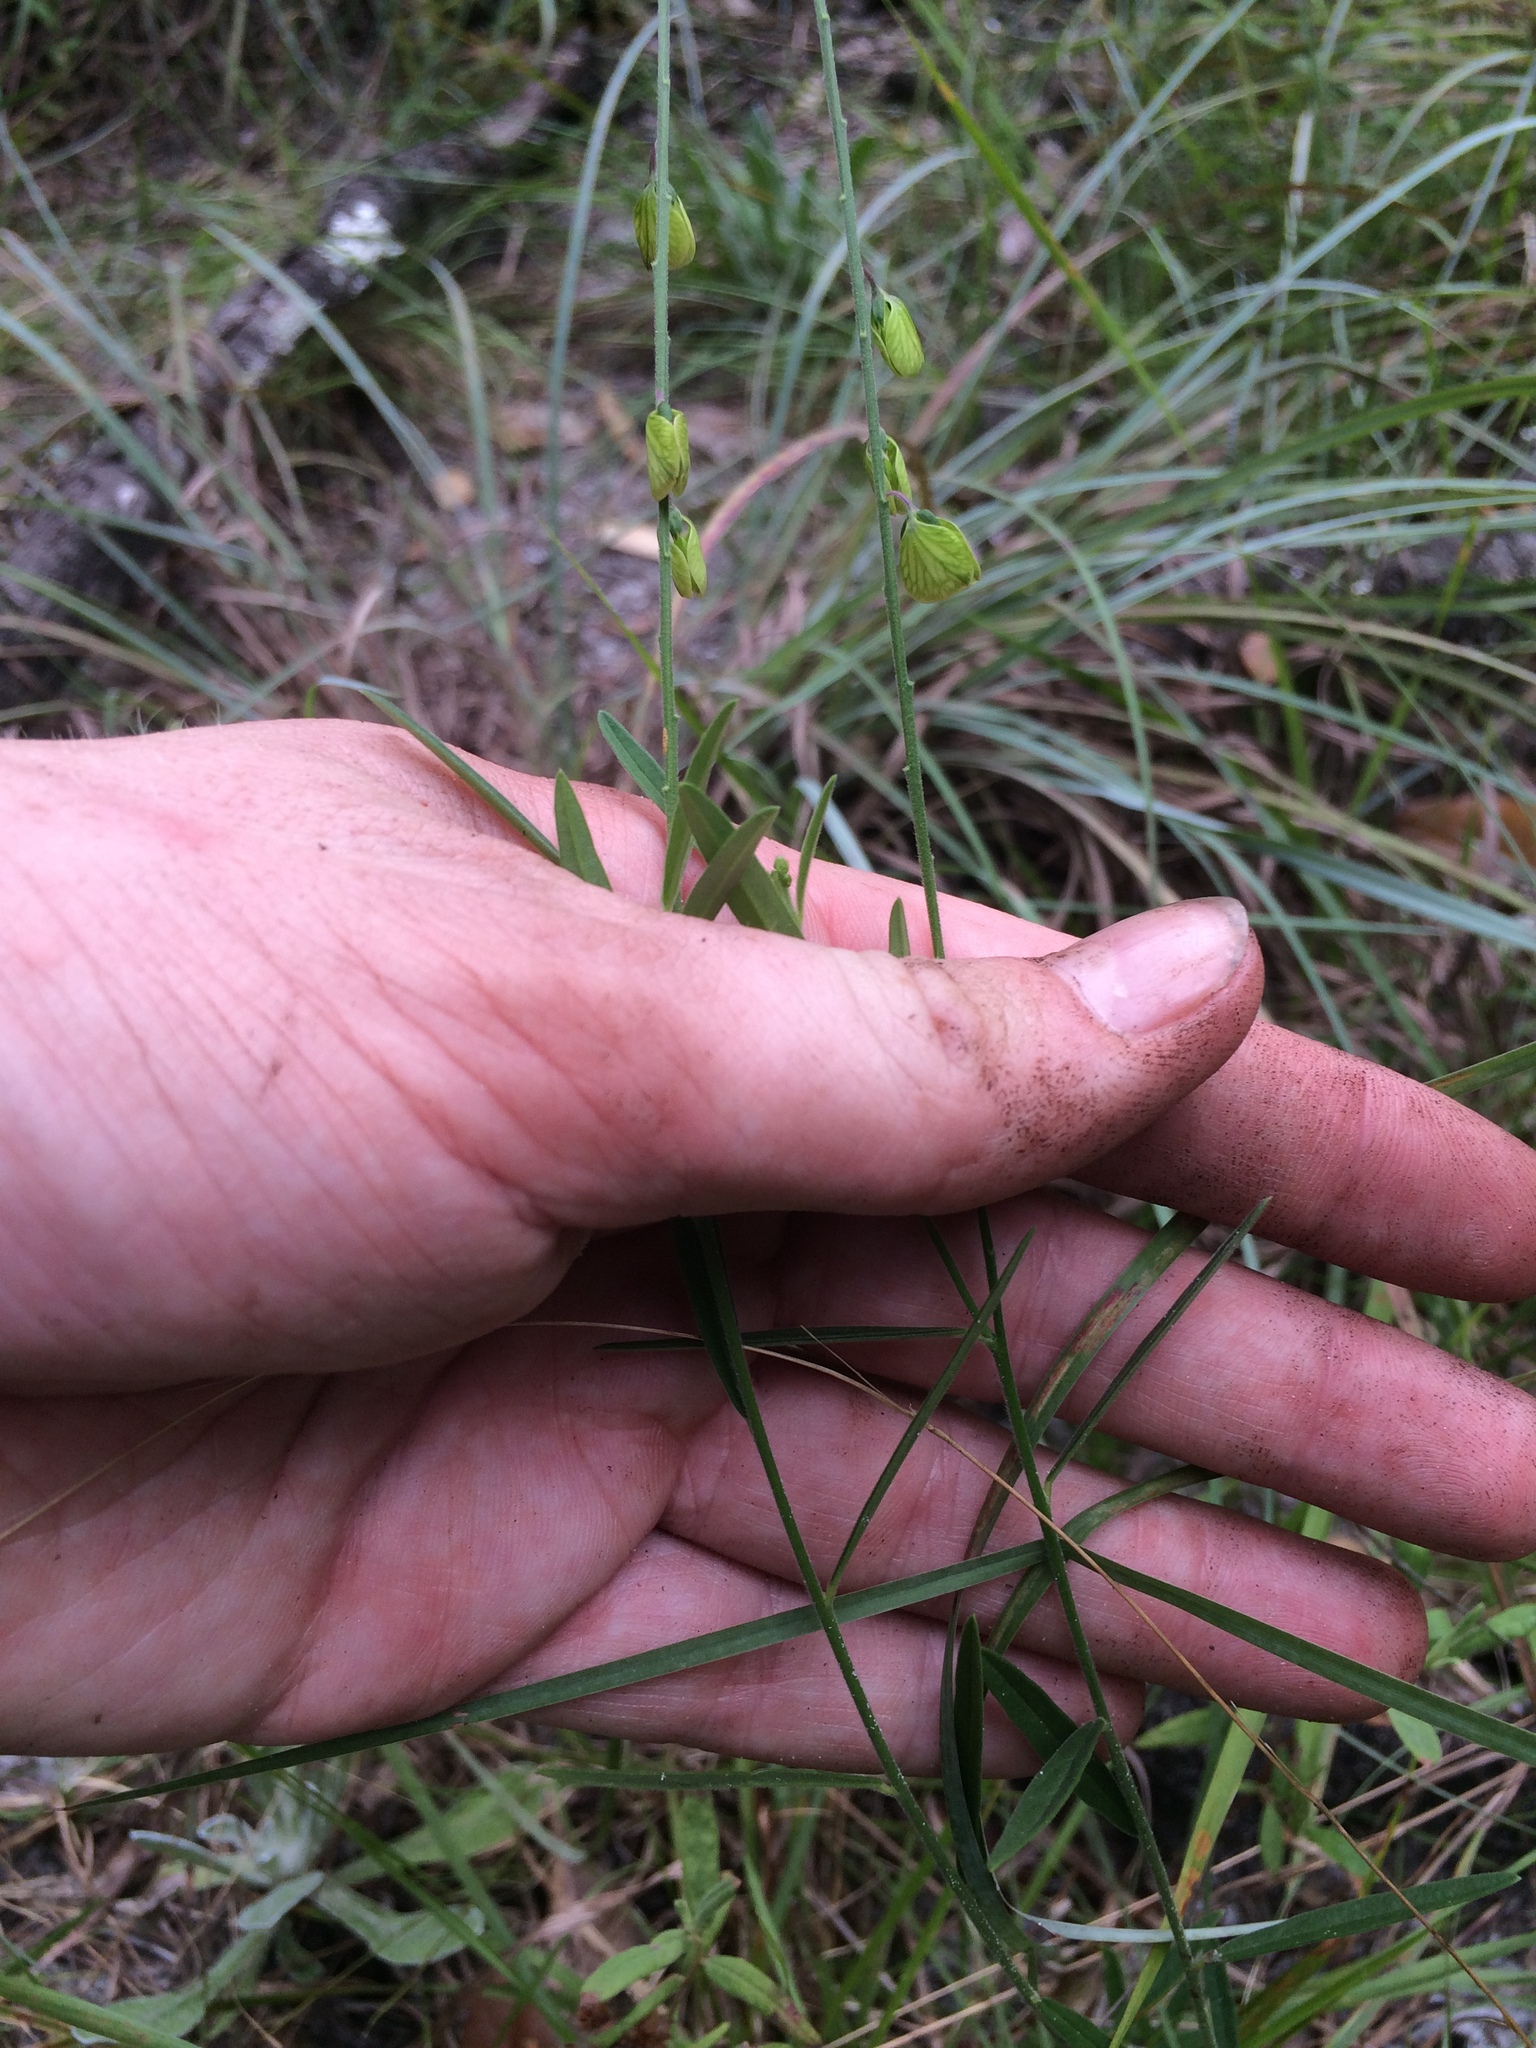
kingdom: Plantae
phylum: Tracheophyta
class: Magnoliopsida
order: Fabales
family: Polygalaceae
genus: Asemeia
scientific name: Asemeia grandiflora
